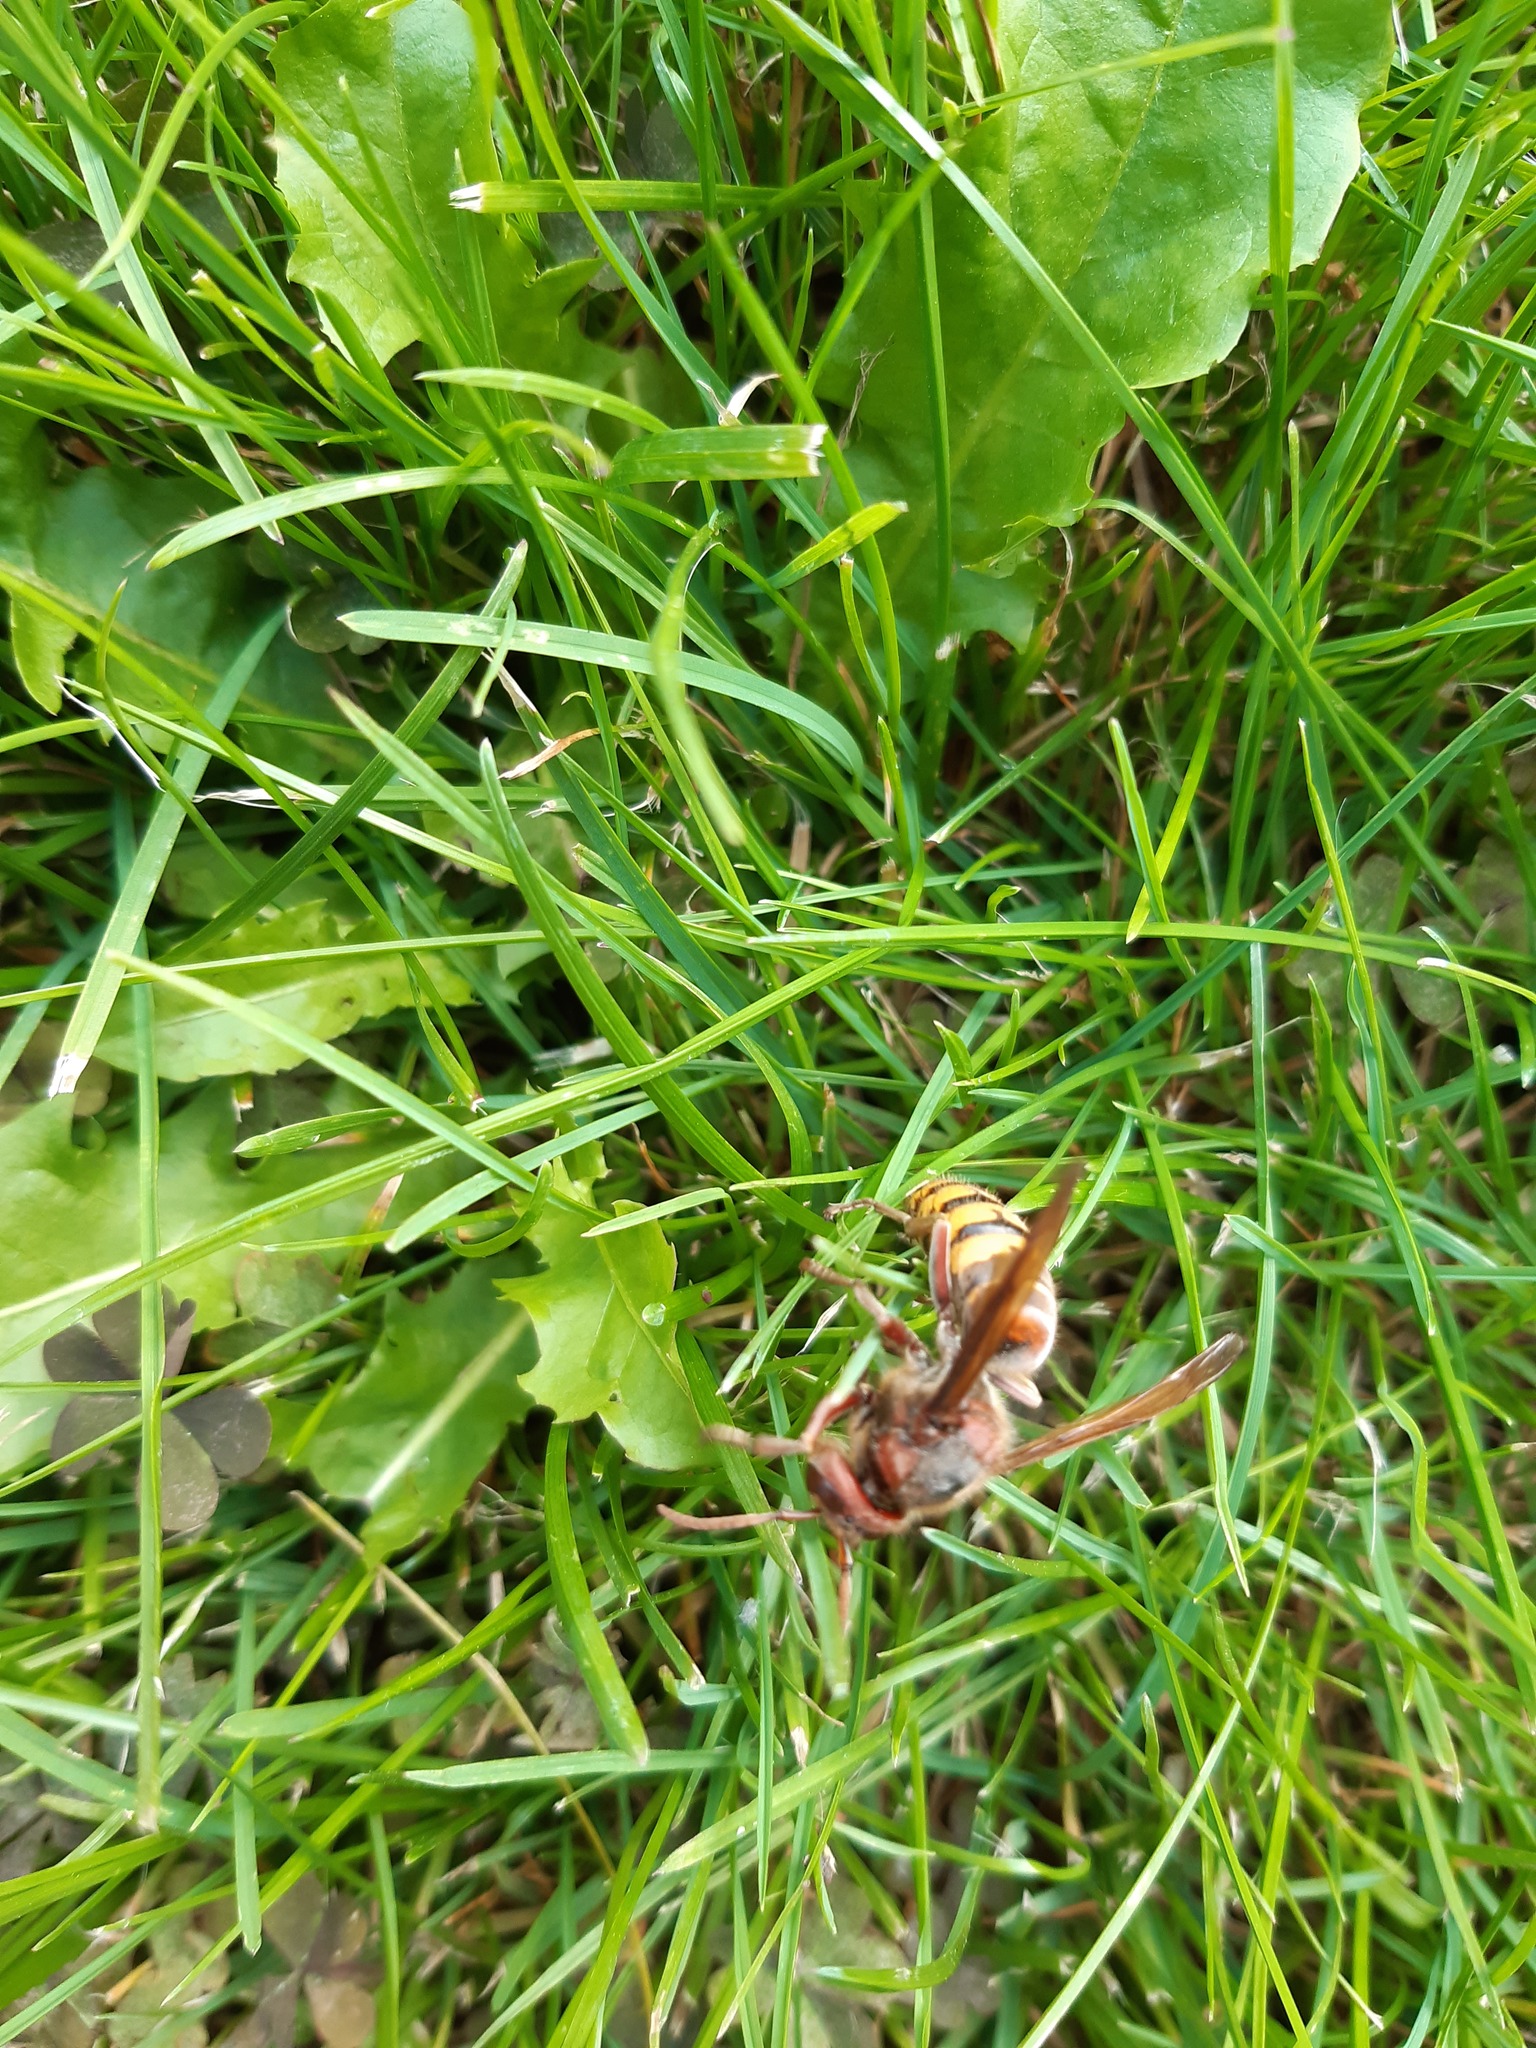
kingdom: Animalia
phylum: Arthropoda
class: Insecta
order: Hymenoptera
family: Vespidae
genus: Vespa
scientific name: Vespa crabro
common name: Hornet
